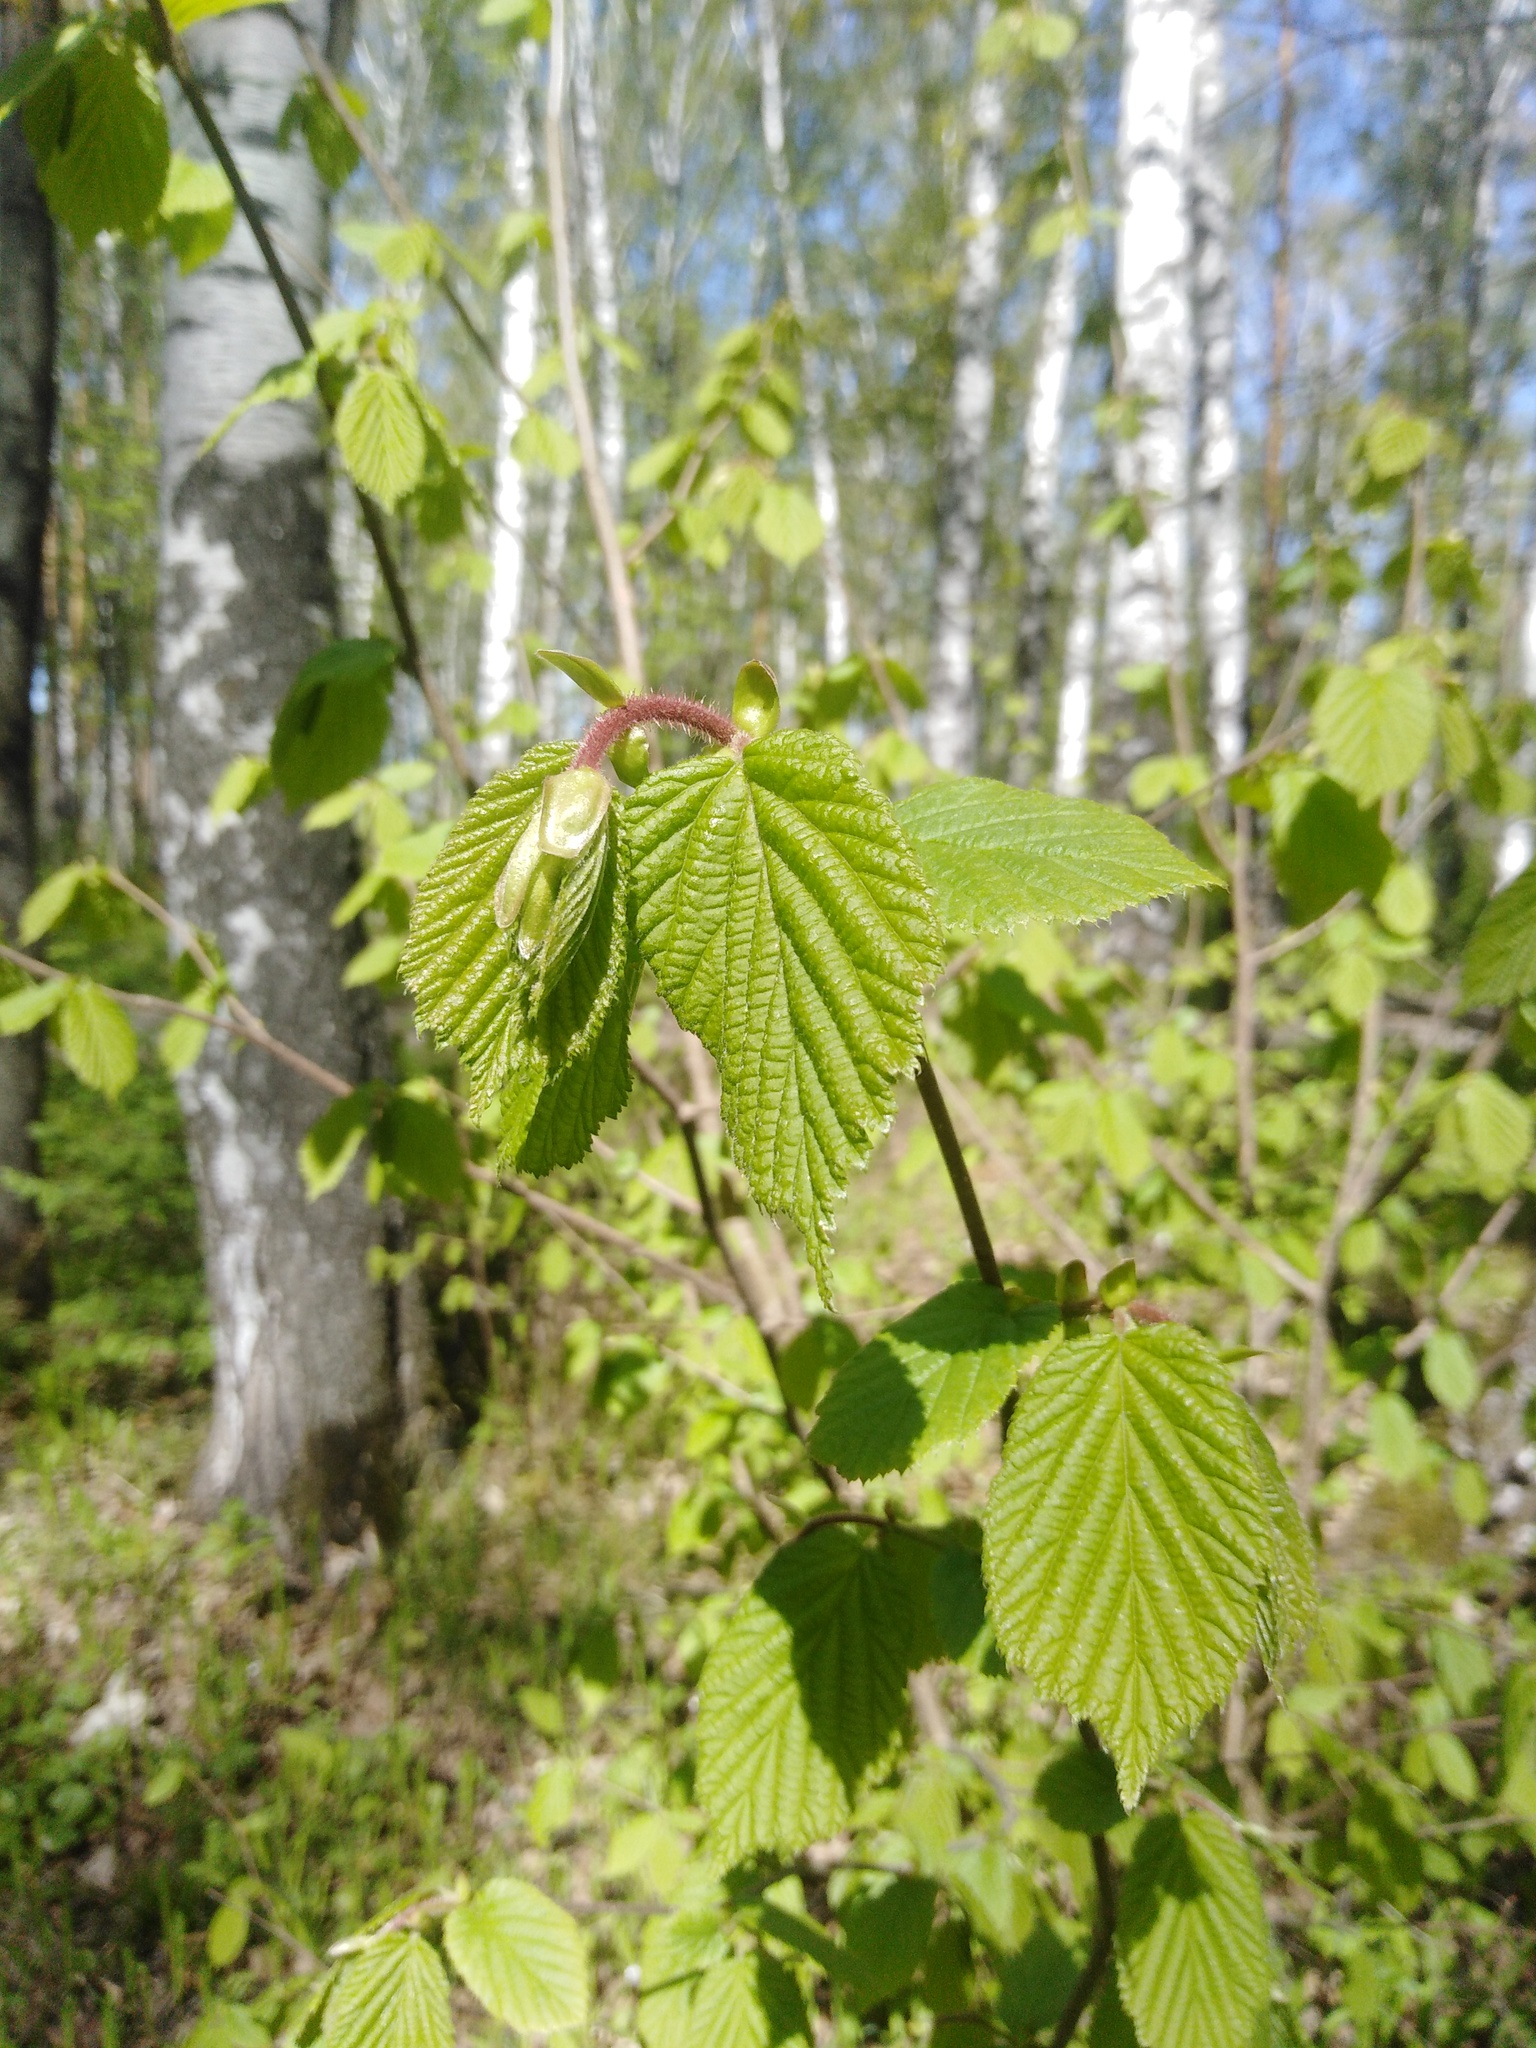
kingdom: Plantae
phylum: Tracheophyta
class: Magnoliopsida
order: Fagales
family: Betulaceae
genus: Corylus
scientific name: Corylus avellana
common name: European hazel
